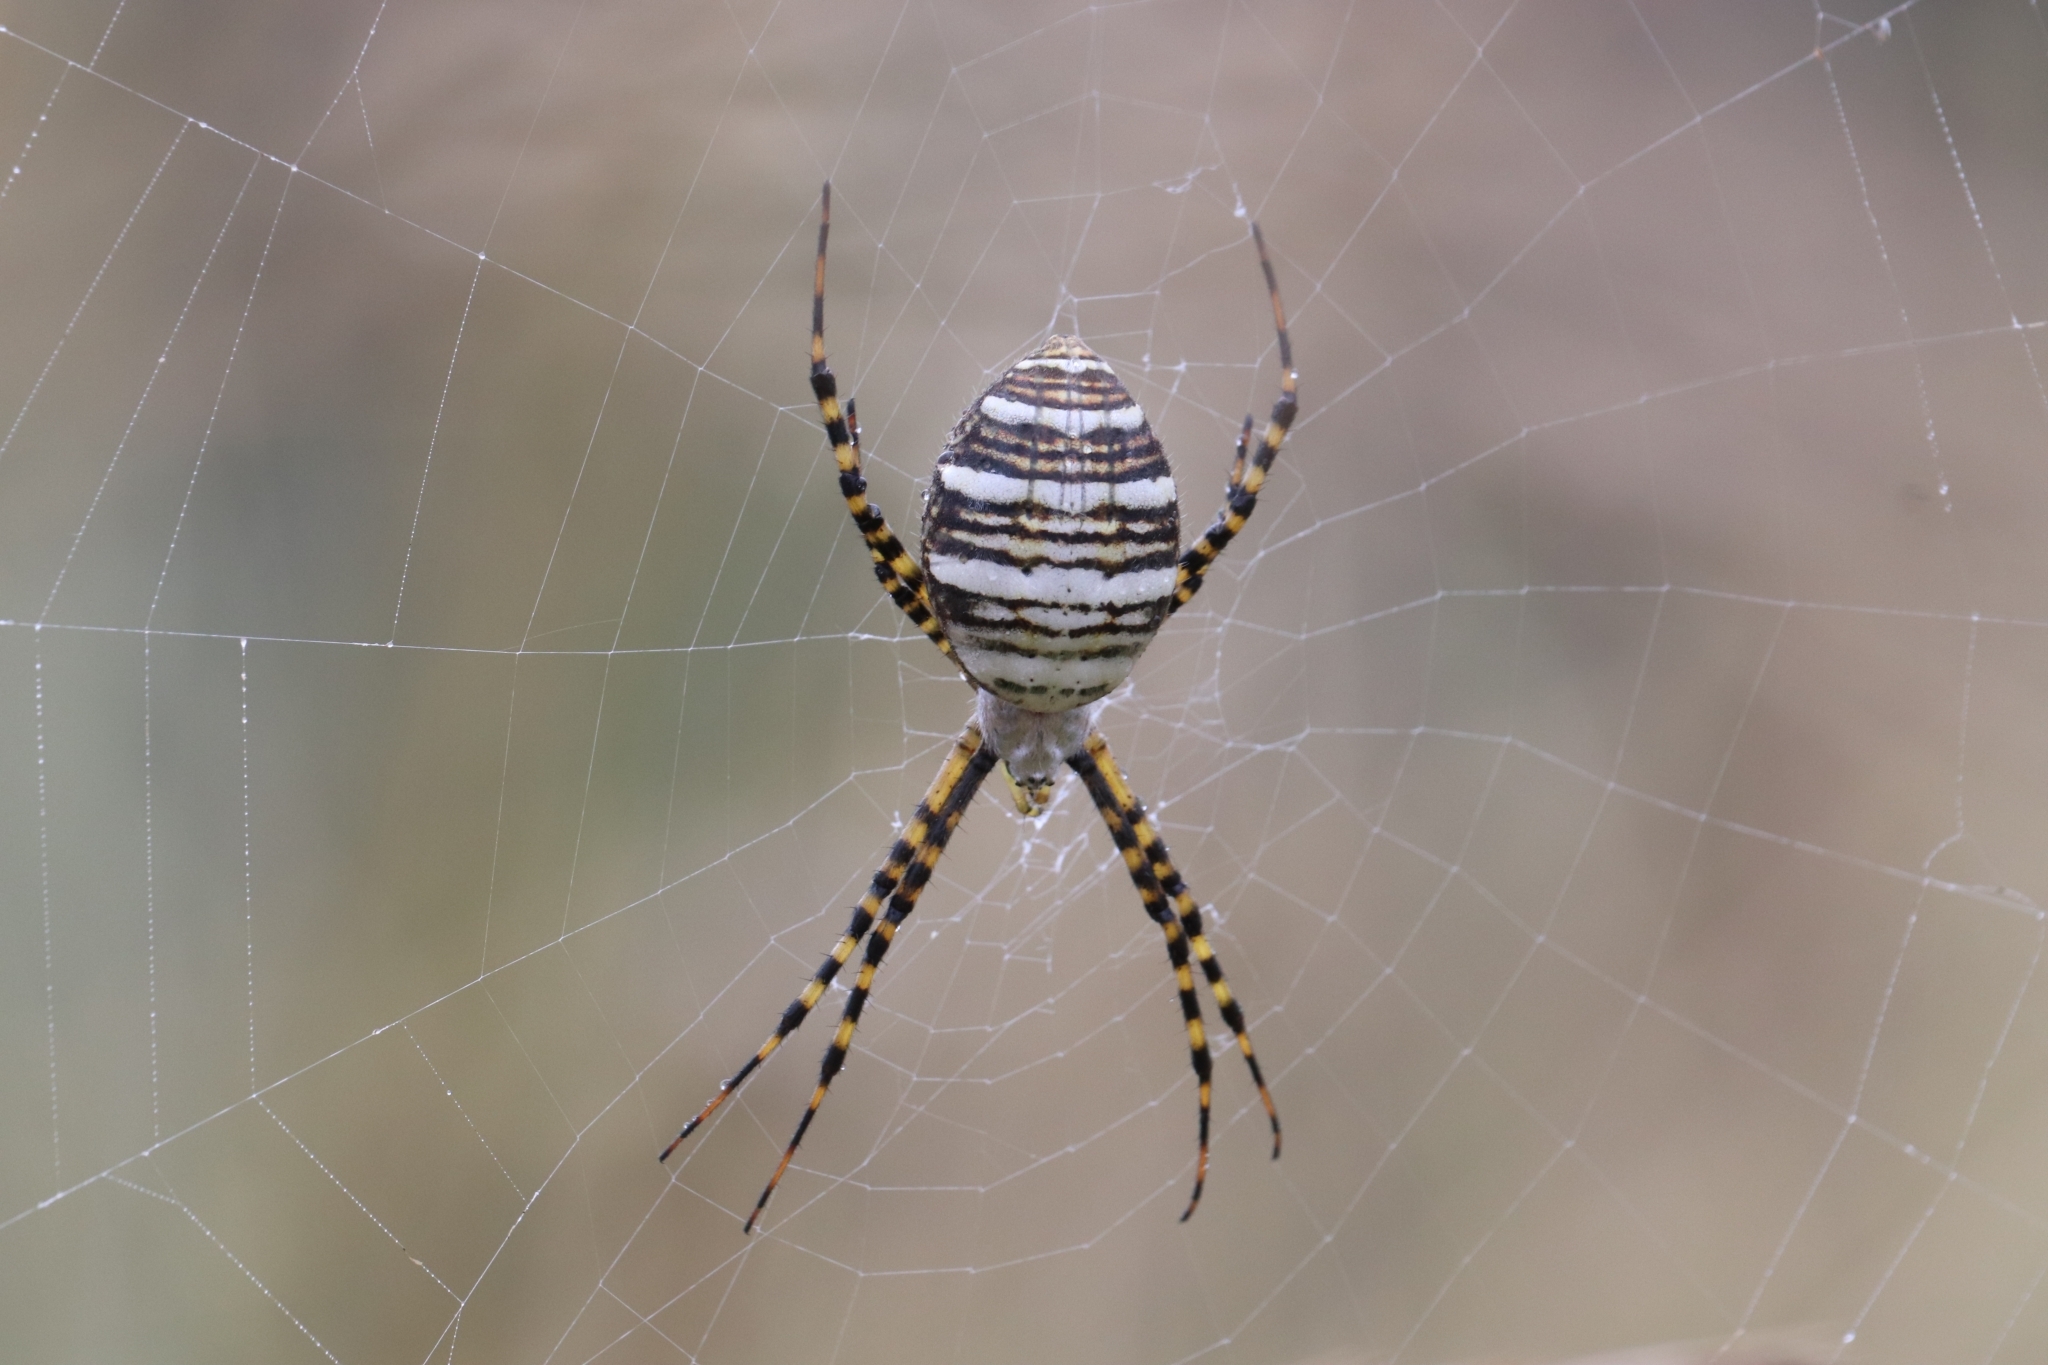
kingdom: Animalia
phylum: Arthropoda
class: Arachnida
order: Araneae
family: Araneidae
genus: Argiope
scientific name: Argiope trifasciata
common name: Banded garden spider
